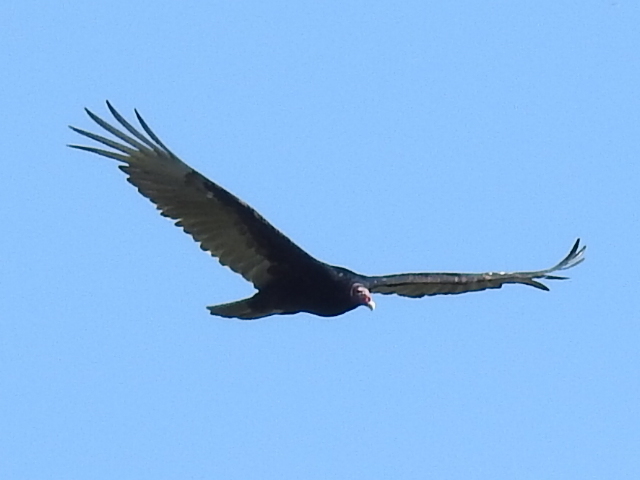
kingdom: Animalia
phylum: Chordata
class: Aves
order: Accipitriformes
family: Cathartidae
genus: Cathartes
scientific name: Cathartes aura
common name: Turkey vulture
